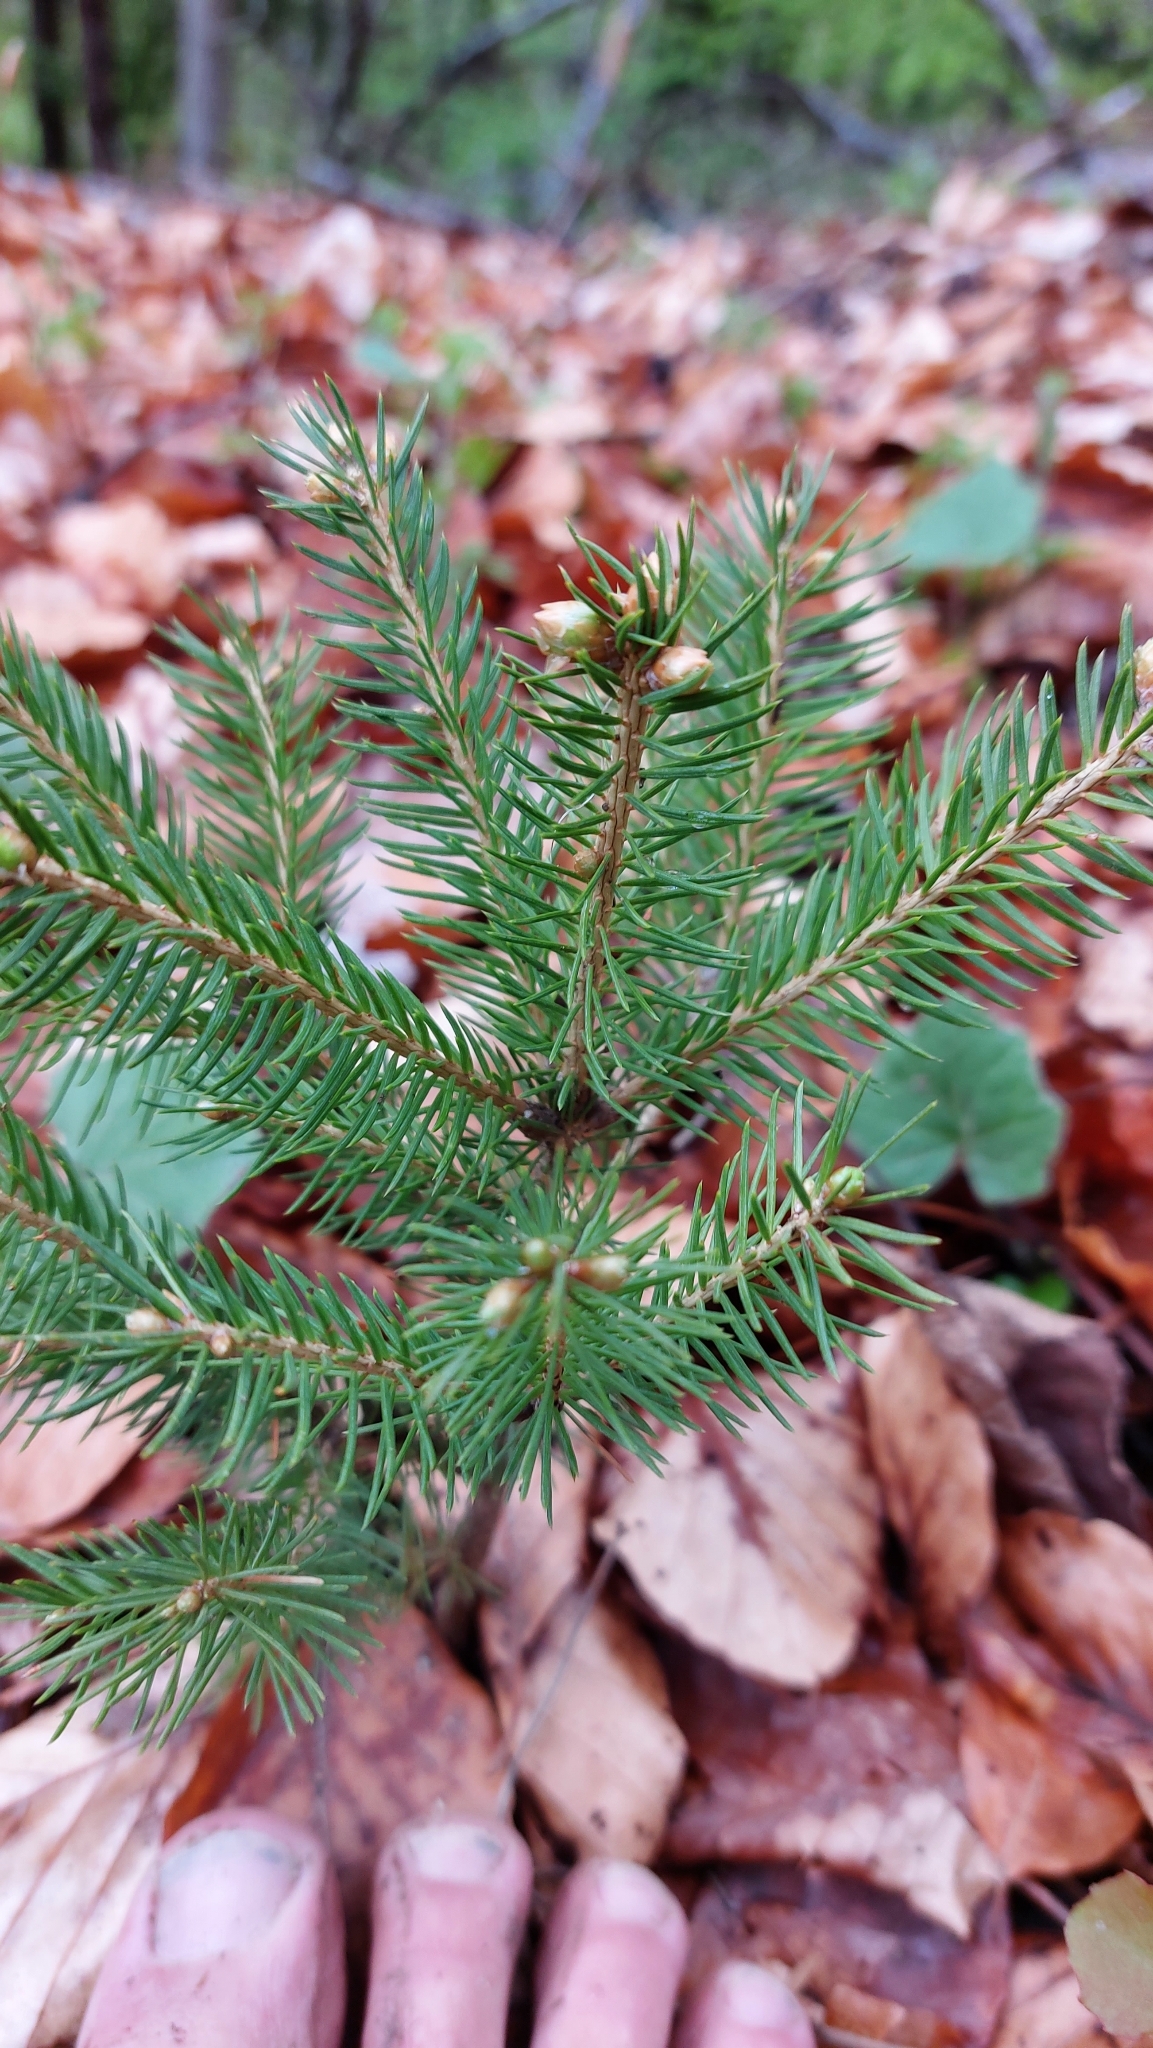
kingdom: Plantae
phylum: Tracheophyta
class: Pinopsida
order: Pinales
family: Pinaceae
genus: Picea
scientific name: Picea abies
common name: Norway spruce
